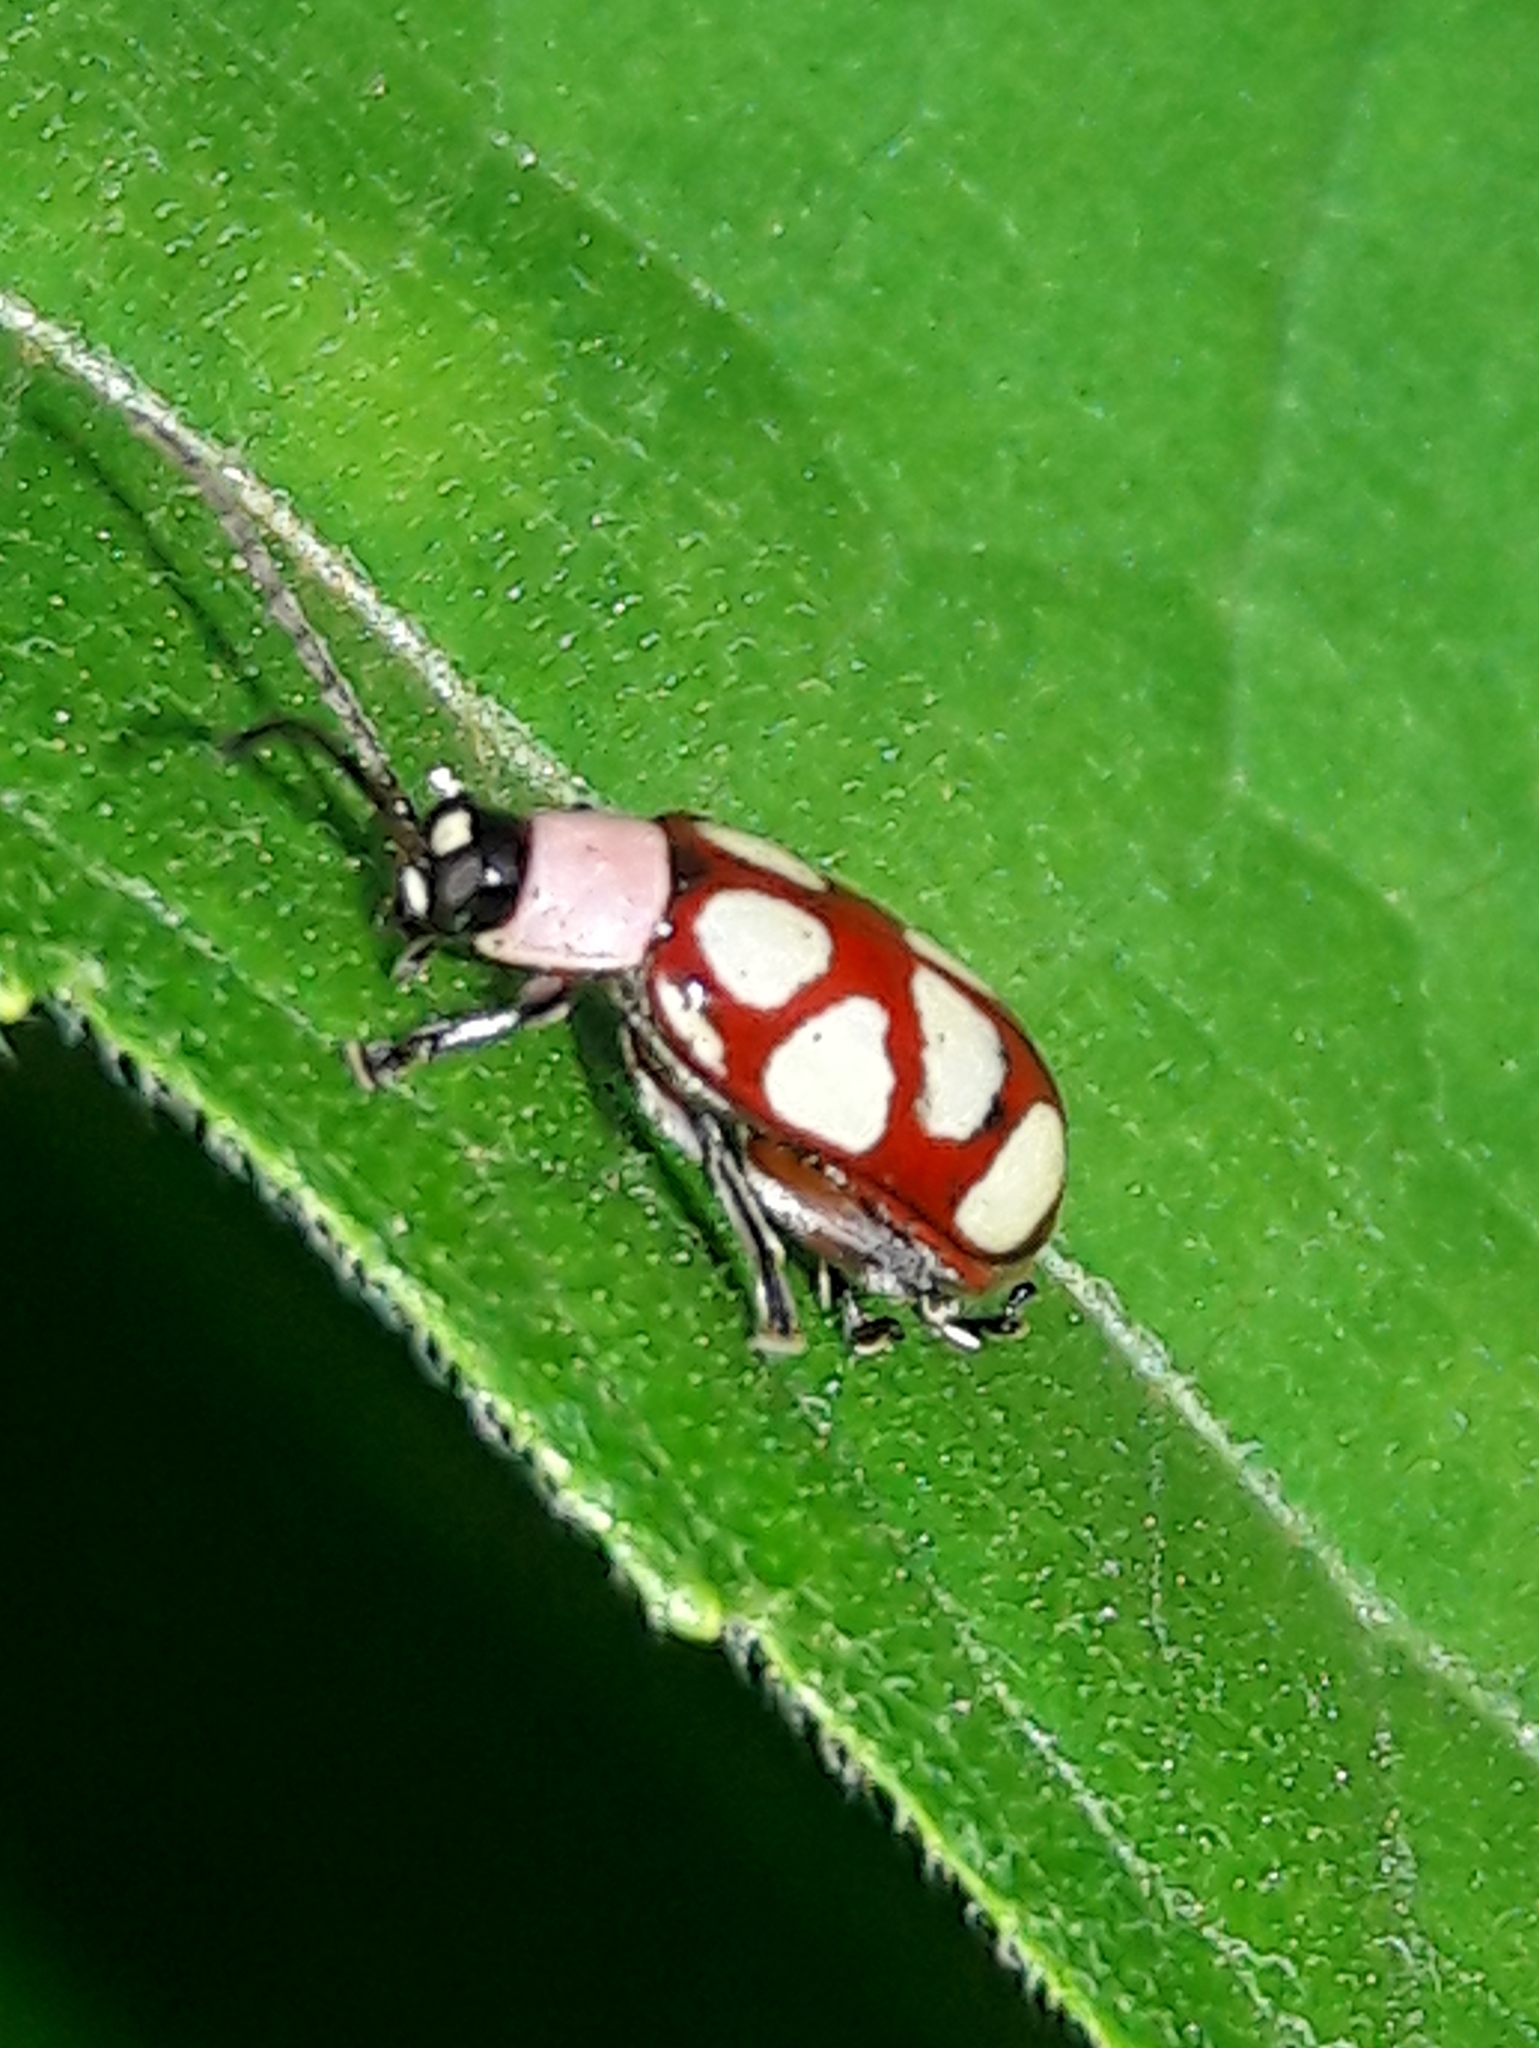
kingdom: Animalia
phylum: Arthropoda
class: Insecta
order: Coleoptera
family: Chrysomelidae
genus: Omophoita
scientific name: Omophoita
